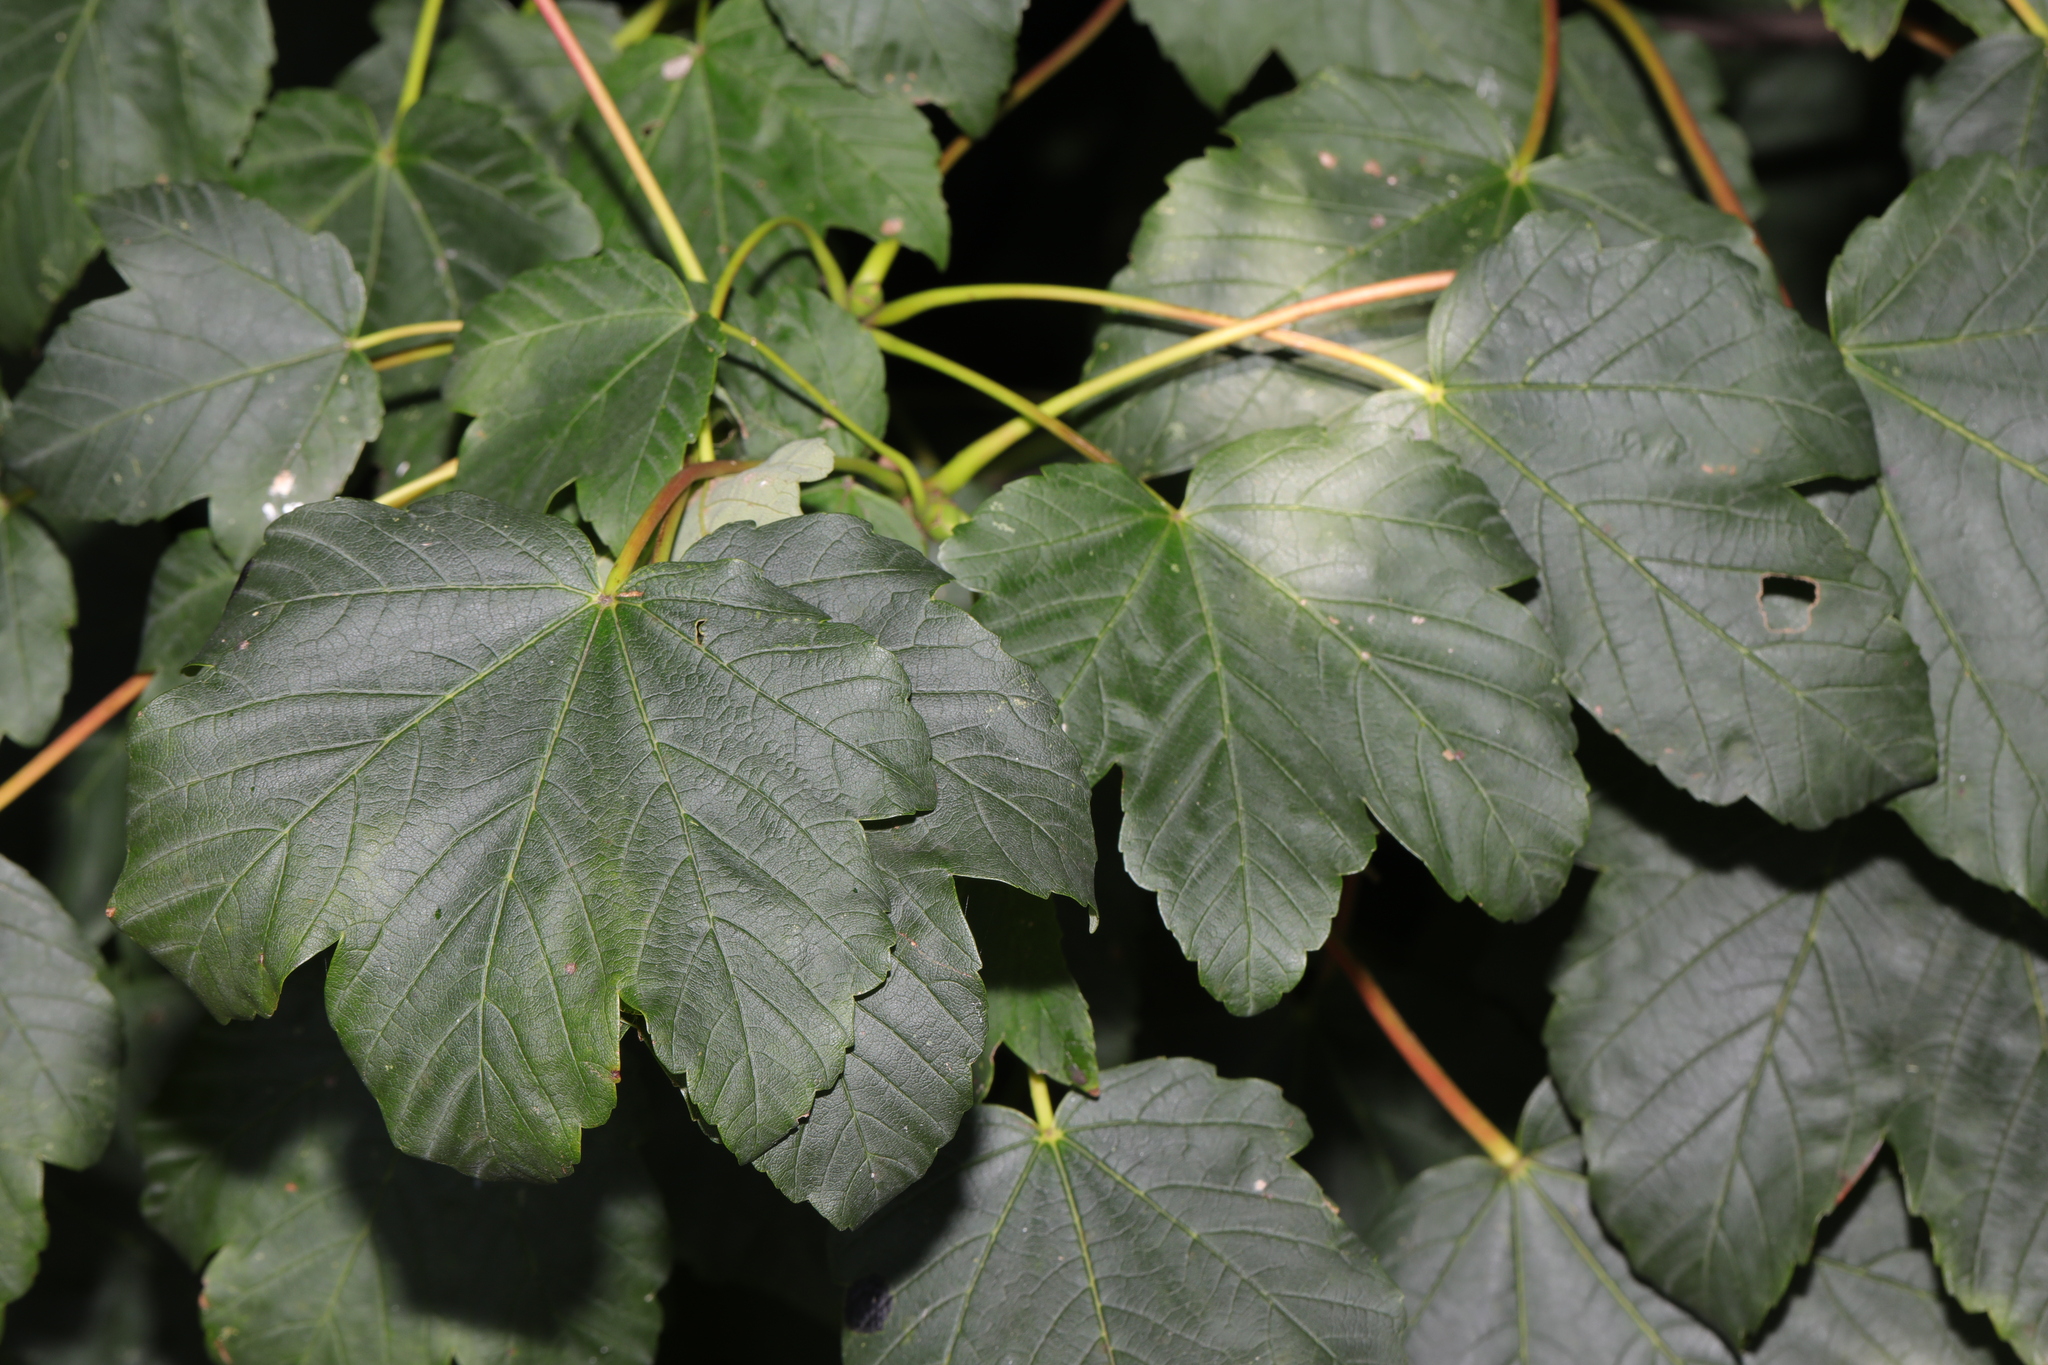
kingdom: Plantae
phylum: Tracheophyta
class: Magnoliopsida
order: Sapindales
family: Sapindaceae
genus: Acer
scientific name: Acer pseudoplatanus
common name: Sycamore
